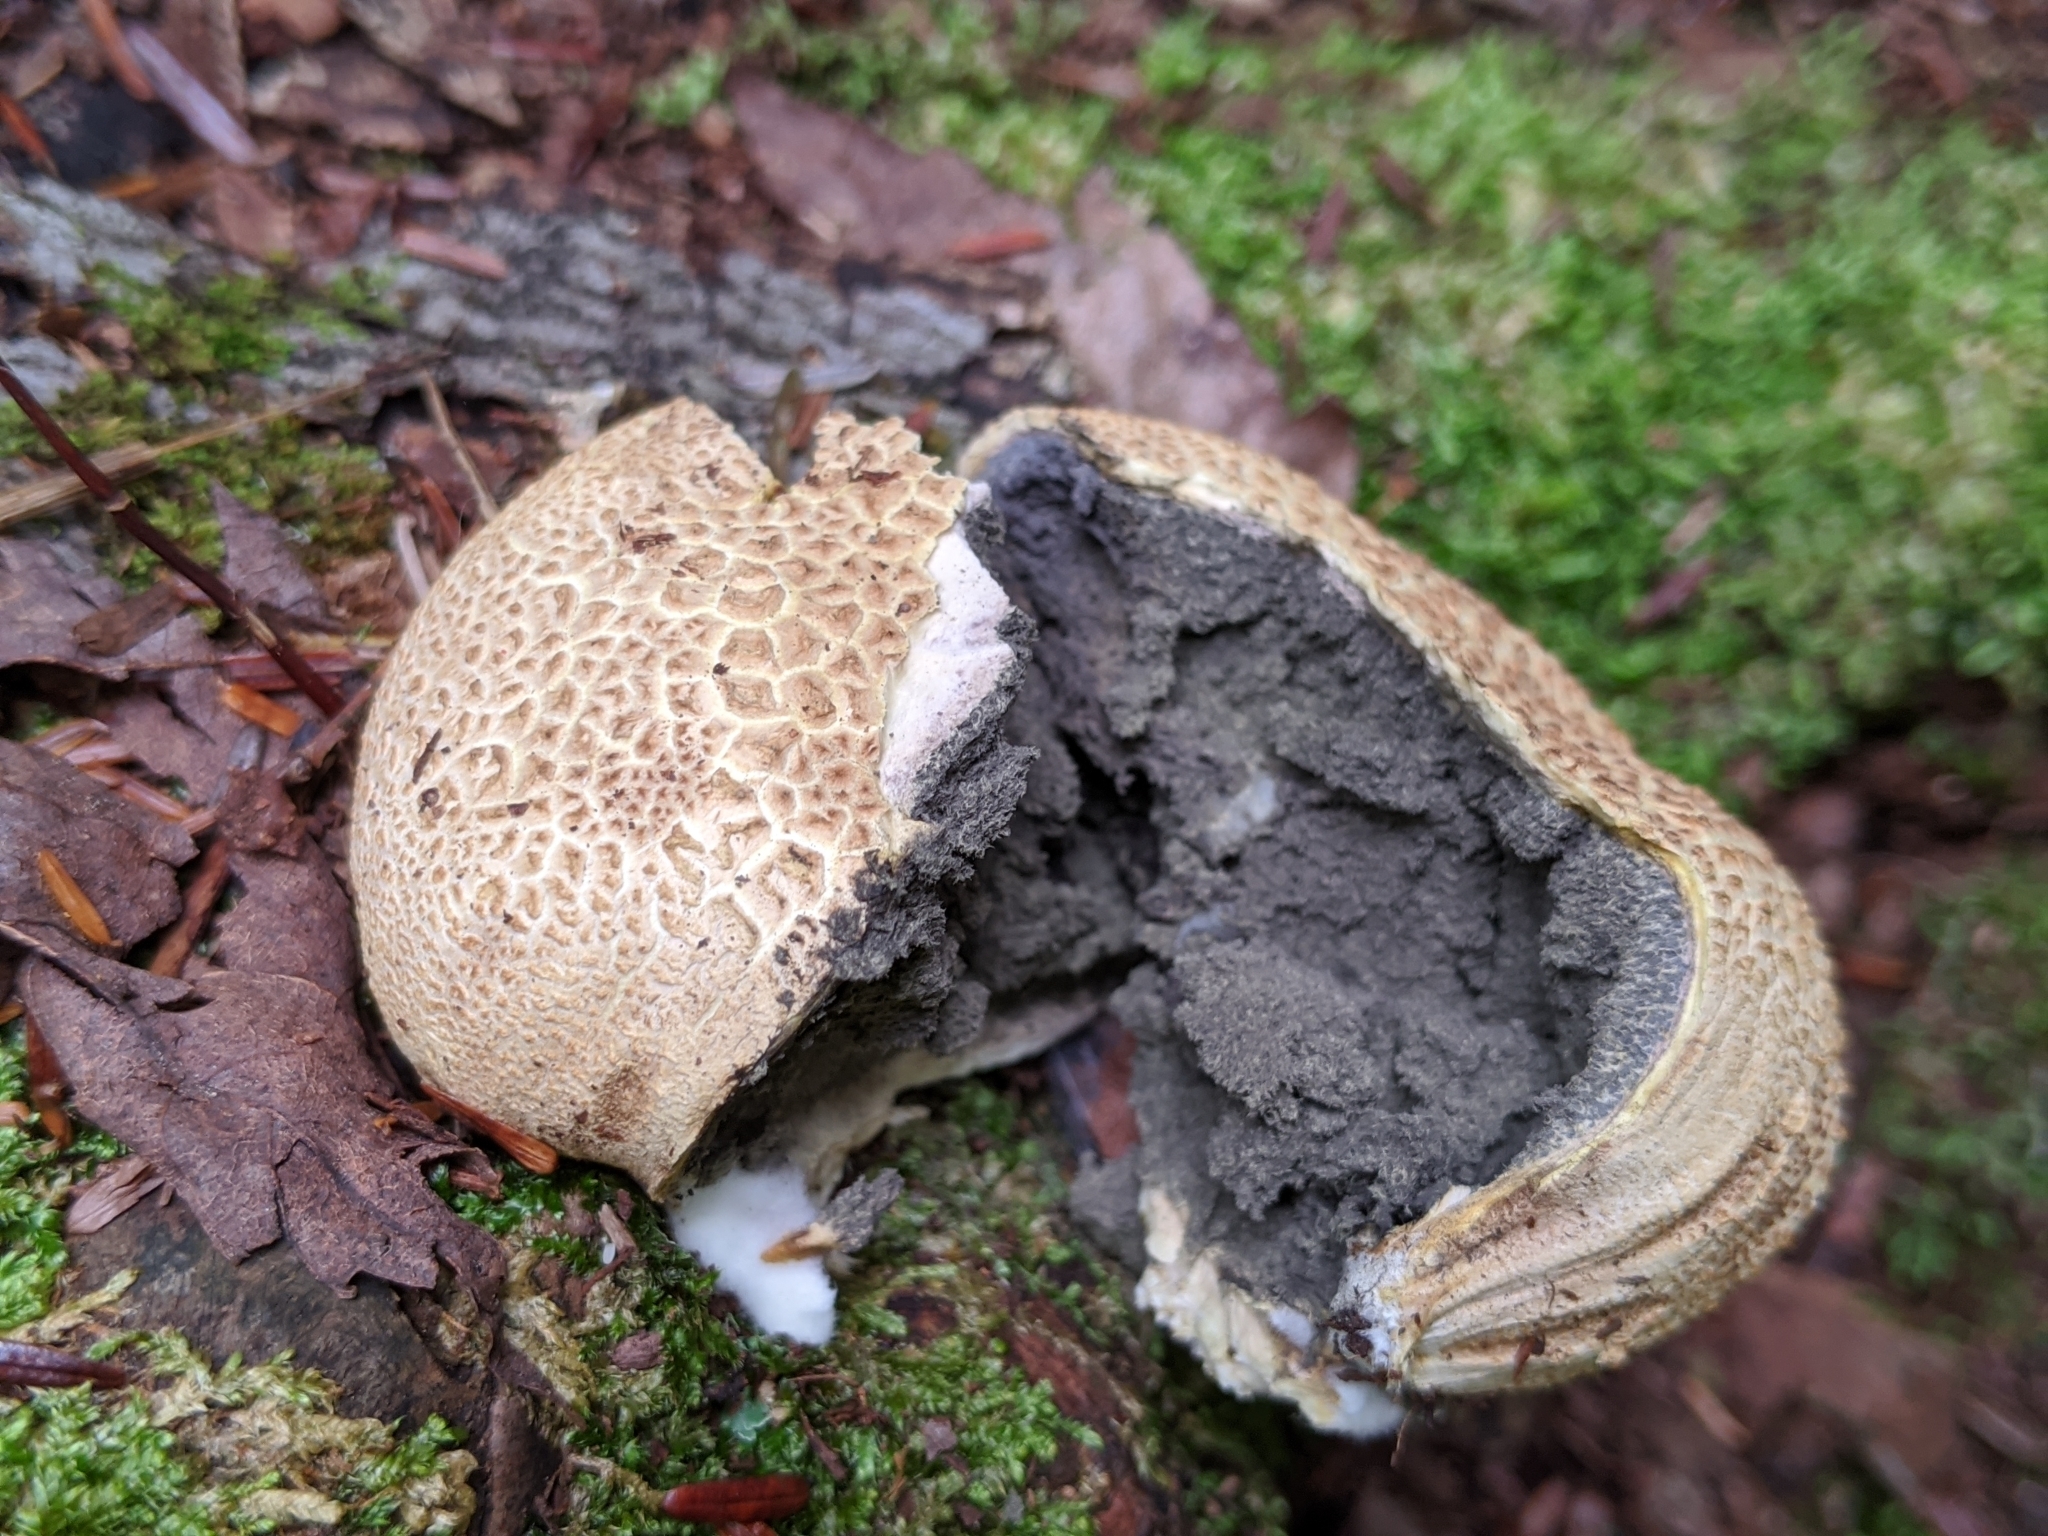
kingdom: Fungi
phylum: Basidiomycota
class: Agaricomycetes
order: Boletales
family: Sclerodermataceae
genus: Scleroderma
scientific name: Scleroderma citrinum
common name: Common earthball
